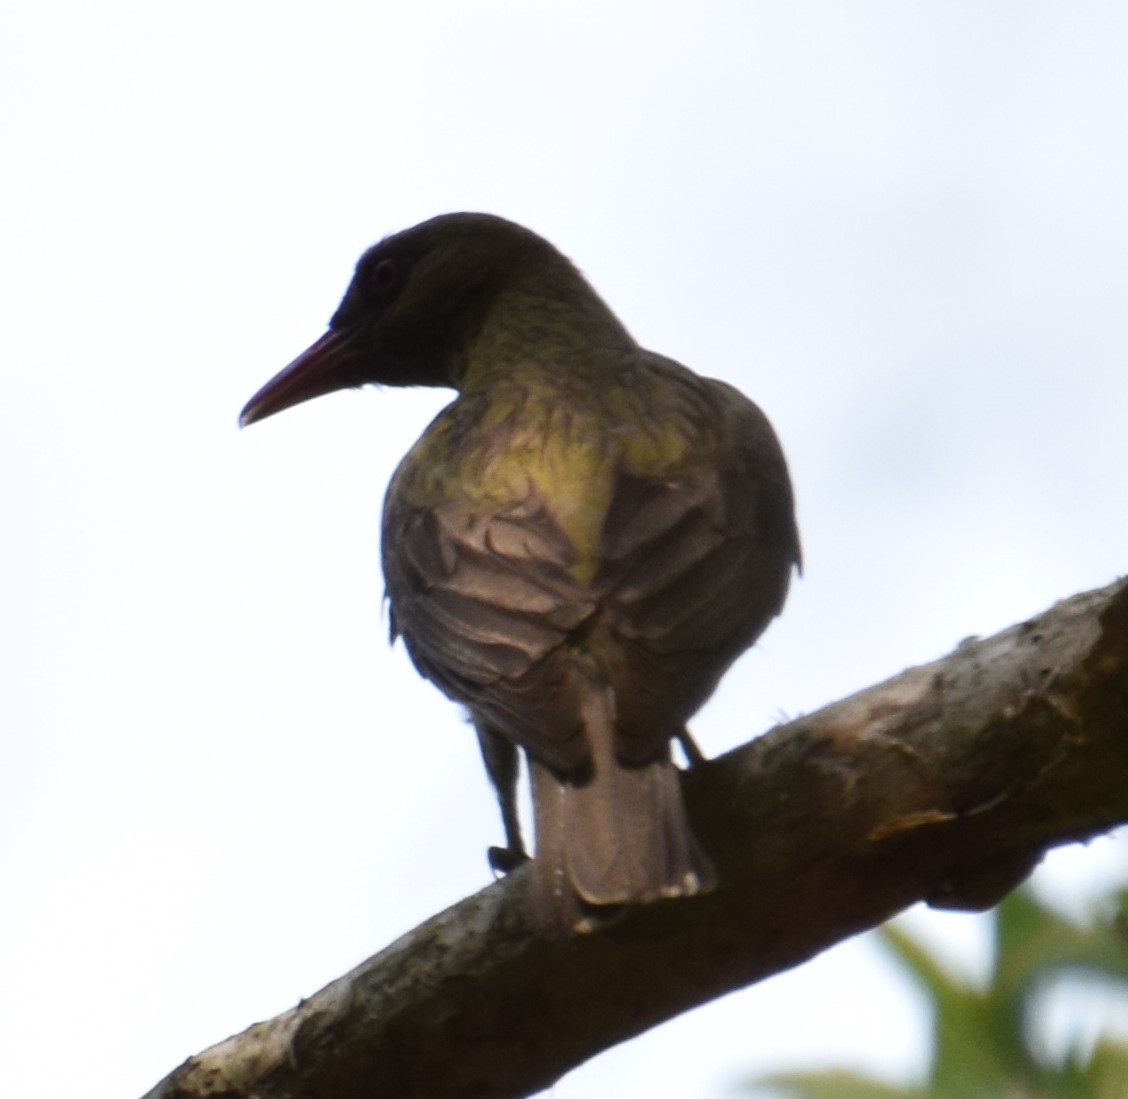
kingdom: Animalia
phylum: Chordata
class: Aves
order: Passeriformes
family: Oriolidae
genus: Oriolus
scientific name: Oriolus sagittatus
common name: Olive-backed oriole
